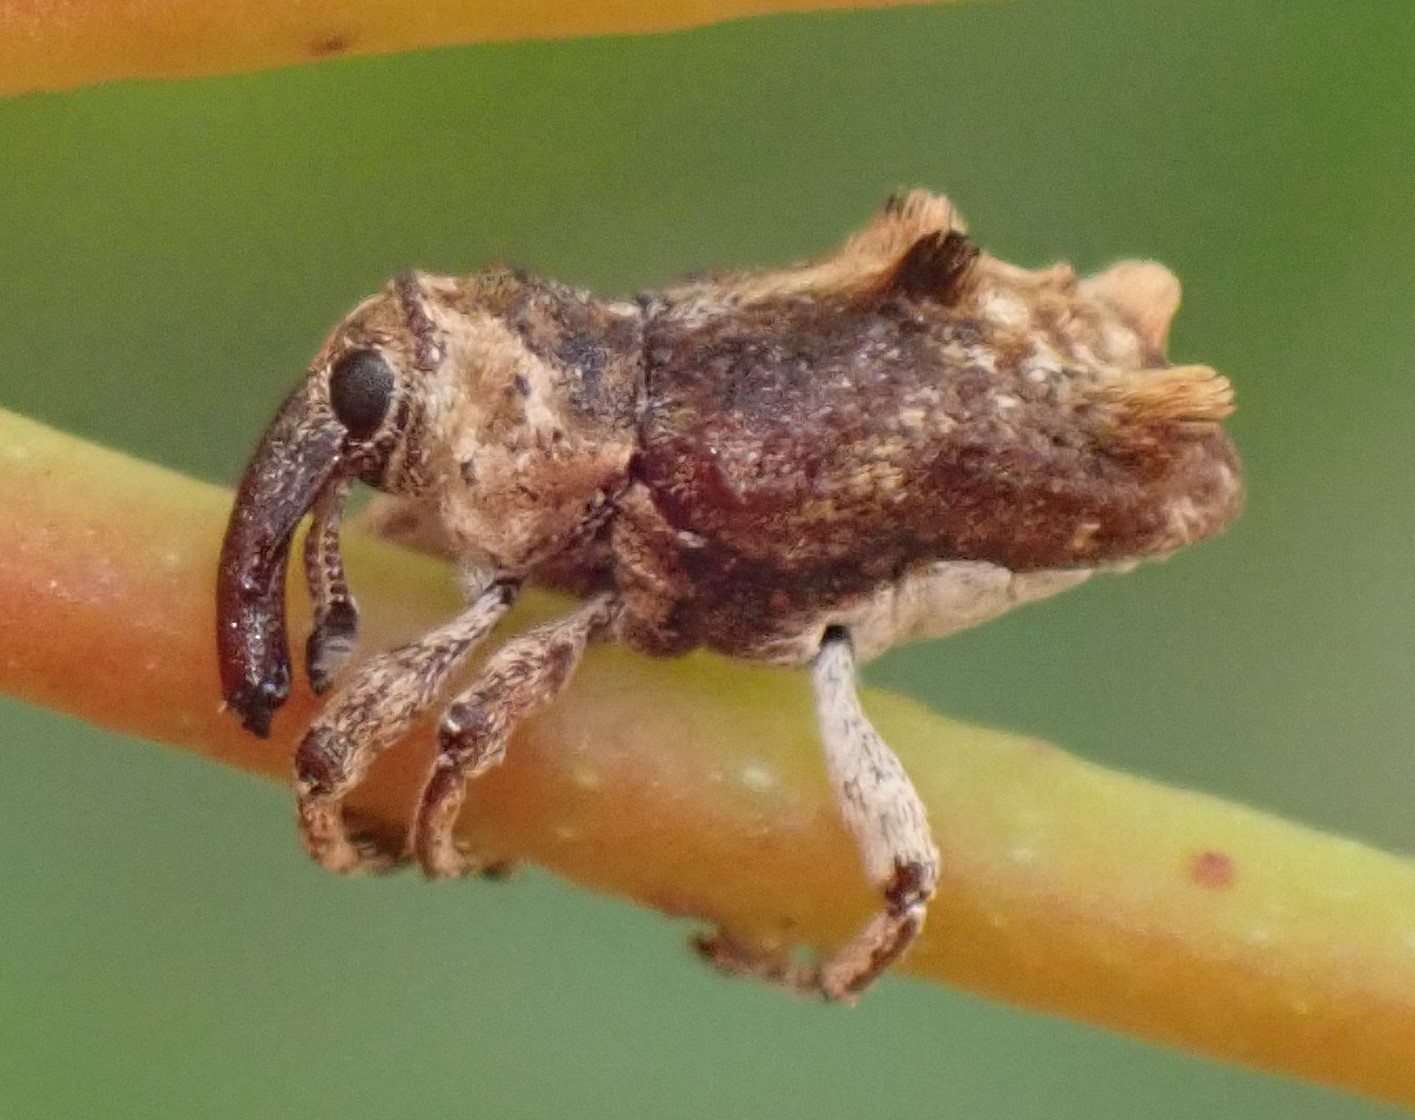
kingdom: Animalia
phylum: Arthropoda
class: Insecta
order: Coleoptera
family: Curculionidae
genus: Myllorhinus
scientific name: Myllorhinus dentiferus
